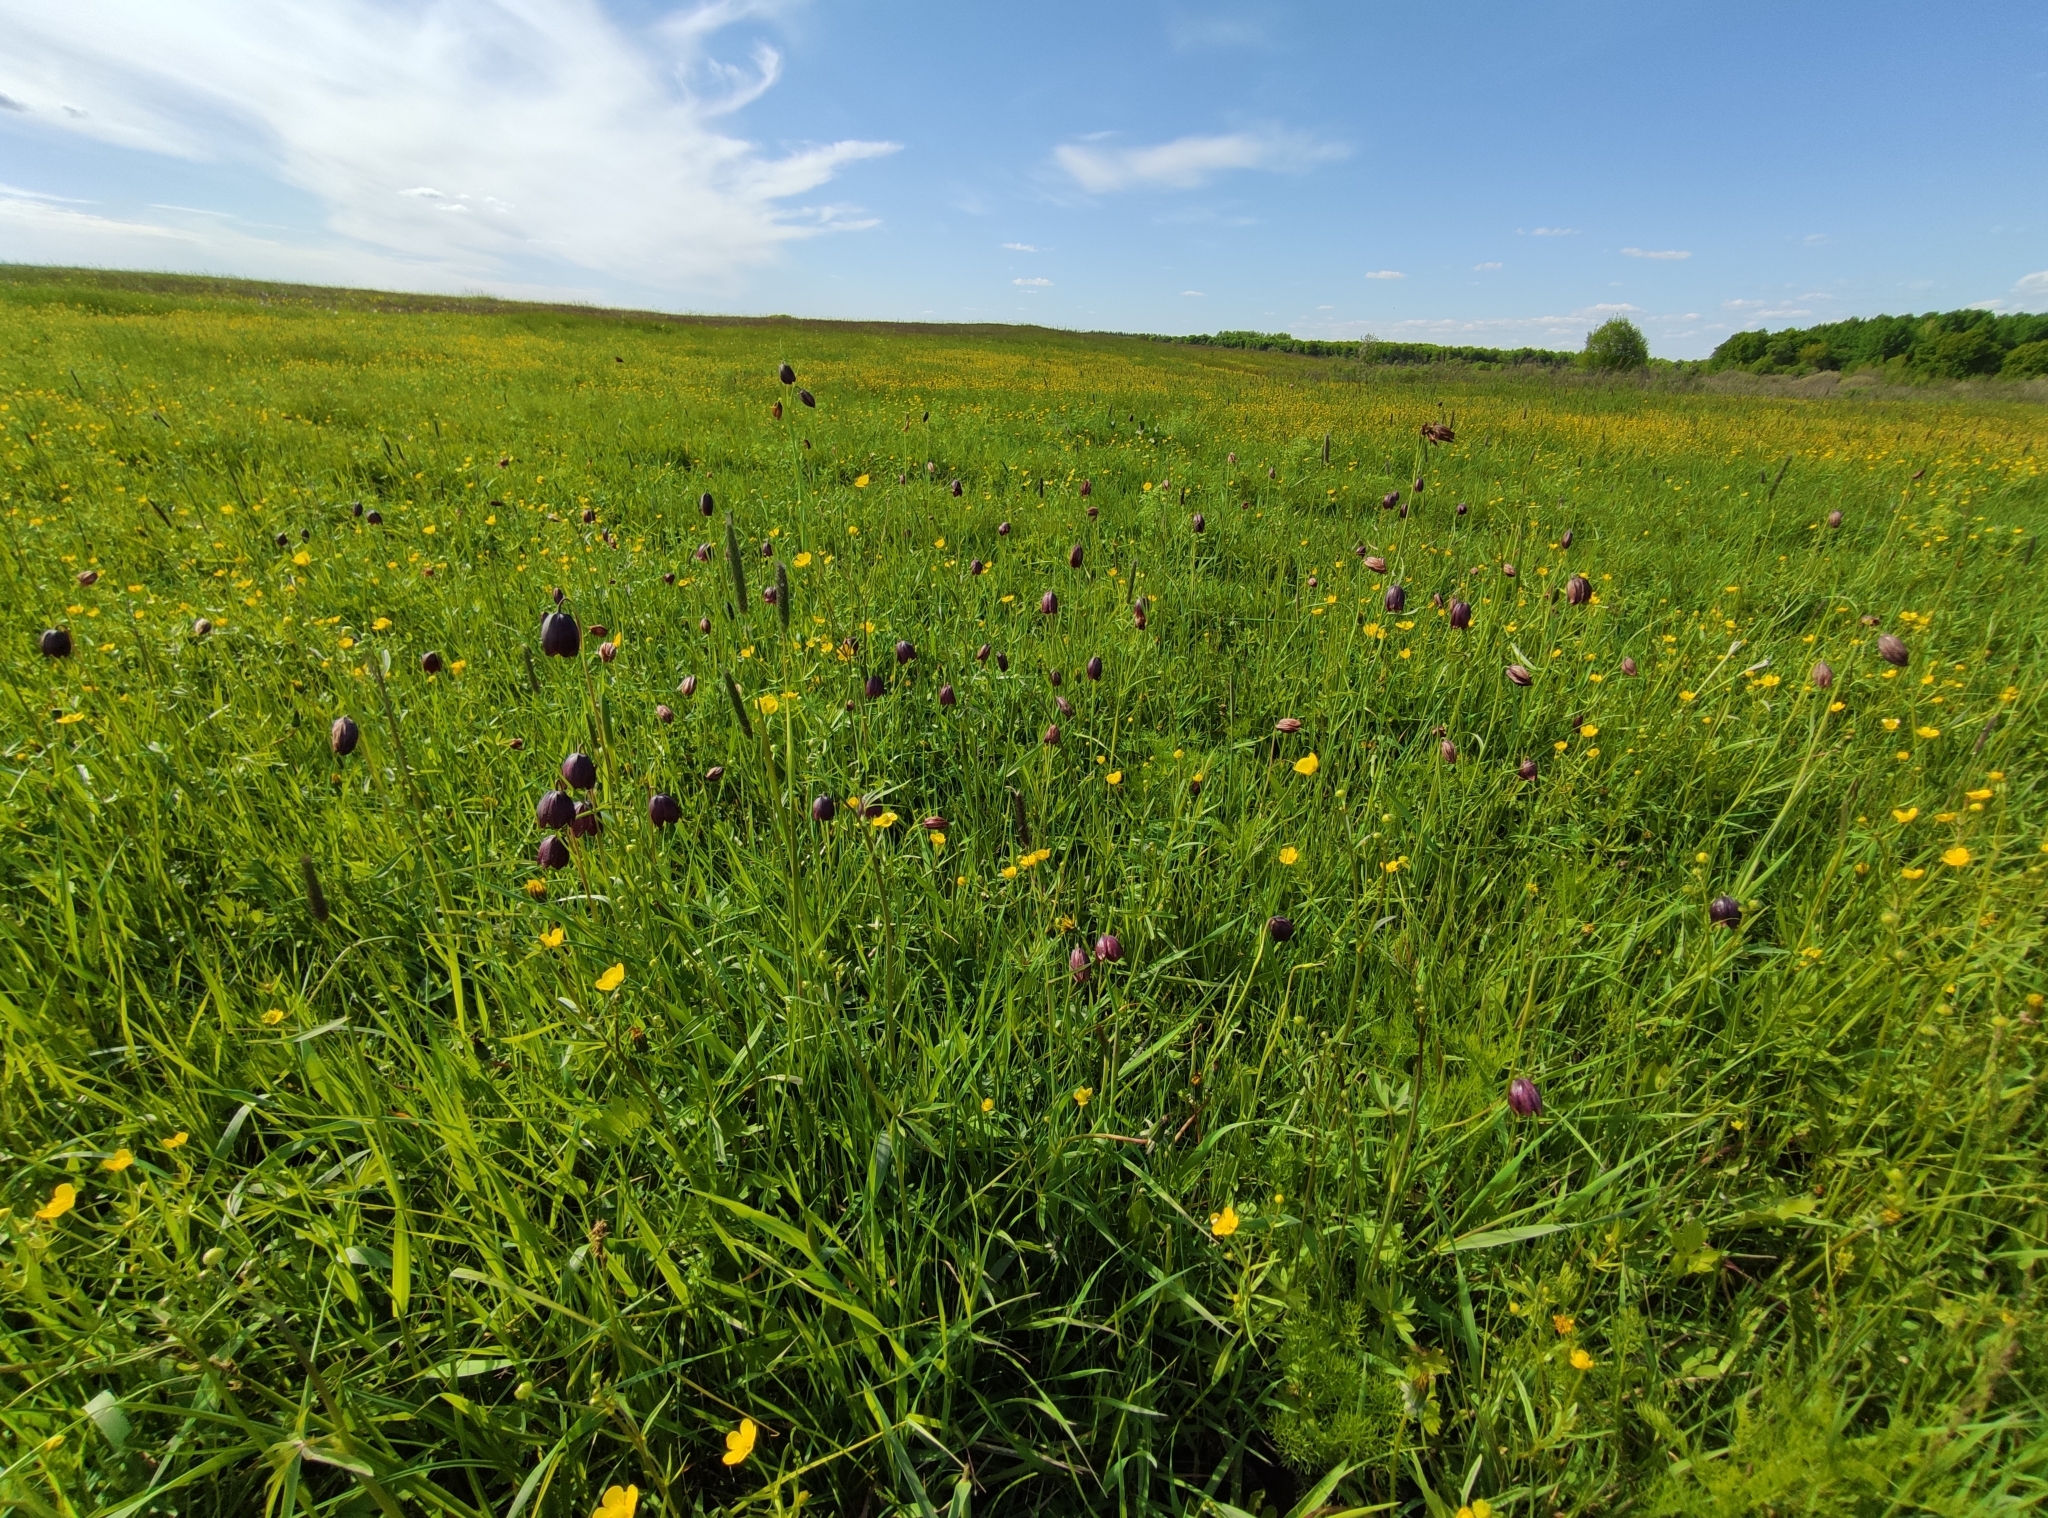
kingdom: Plantae
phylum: Tracheophyta
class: Liliopsida
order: Liliales
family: Liliaceae
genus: Fritillaria
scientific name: Fritillaria meleagroides
